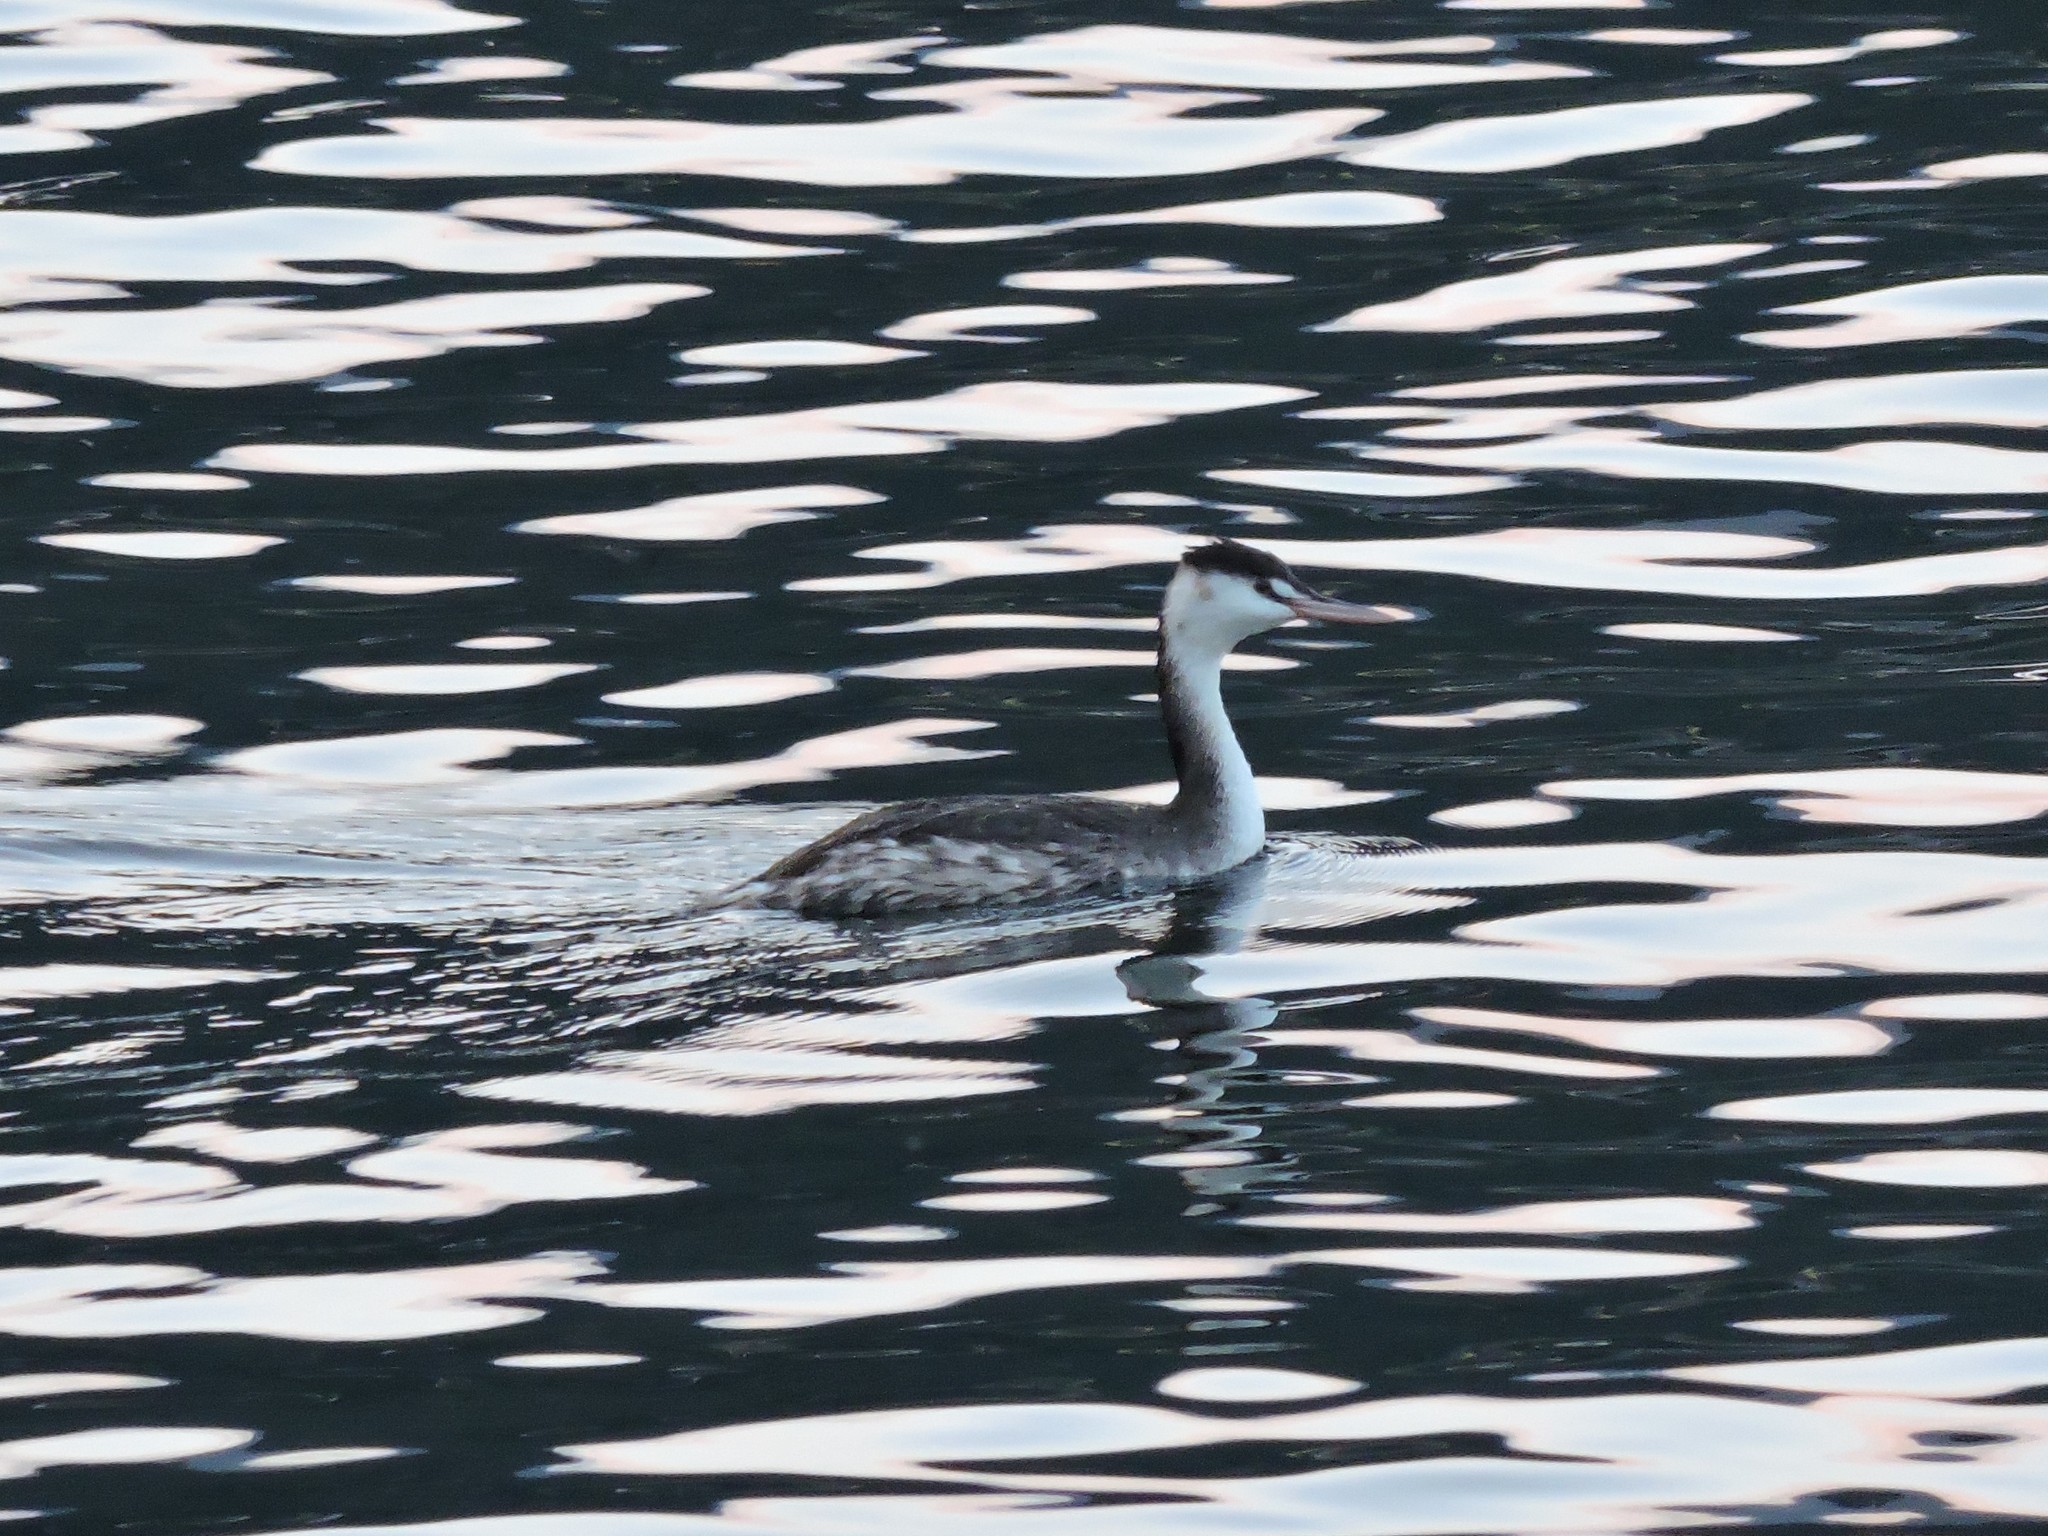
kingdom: Animalia
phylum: Chordata
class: Aves
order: Podicipediformes
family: Podicipedidae
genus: Podiceps
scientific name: Podiceps cristatus
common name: Great crested grebe
